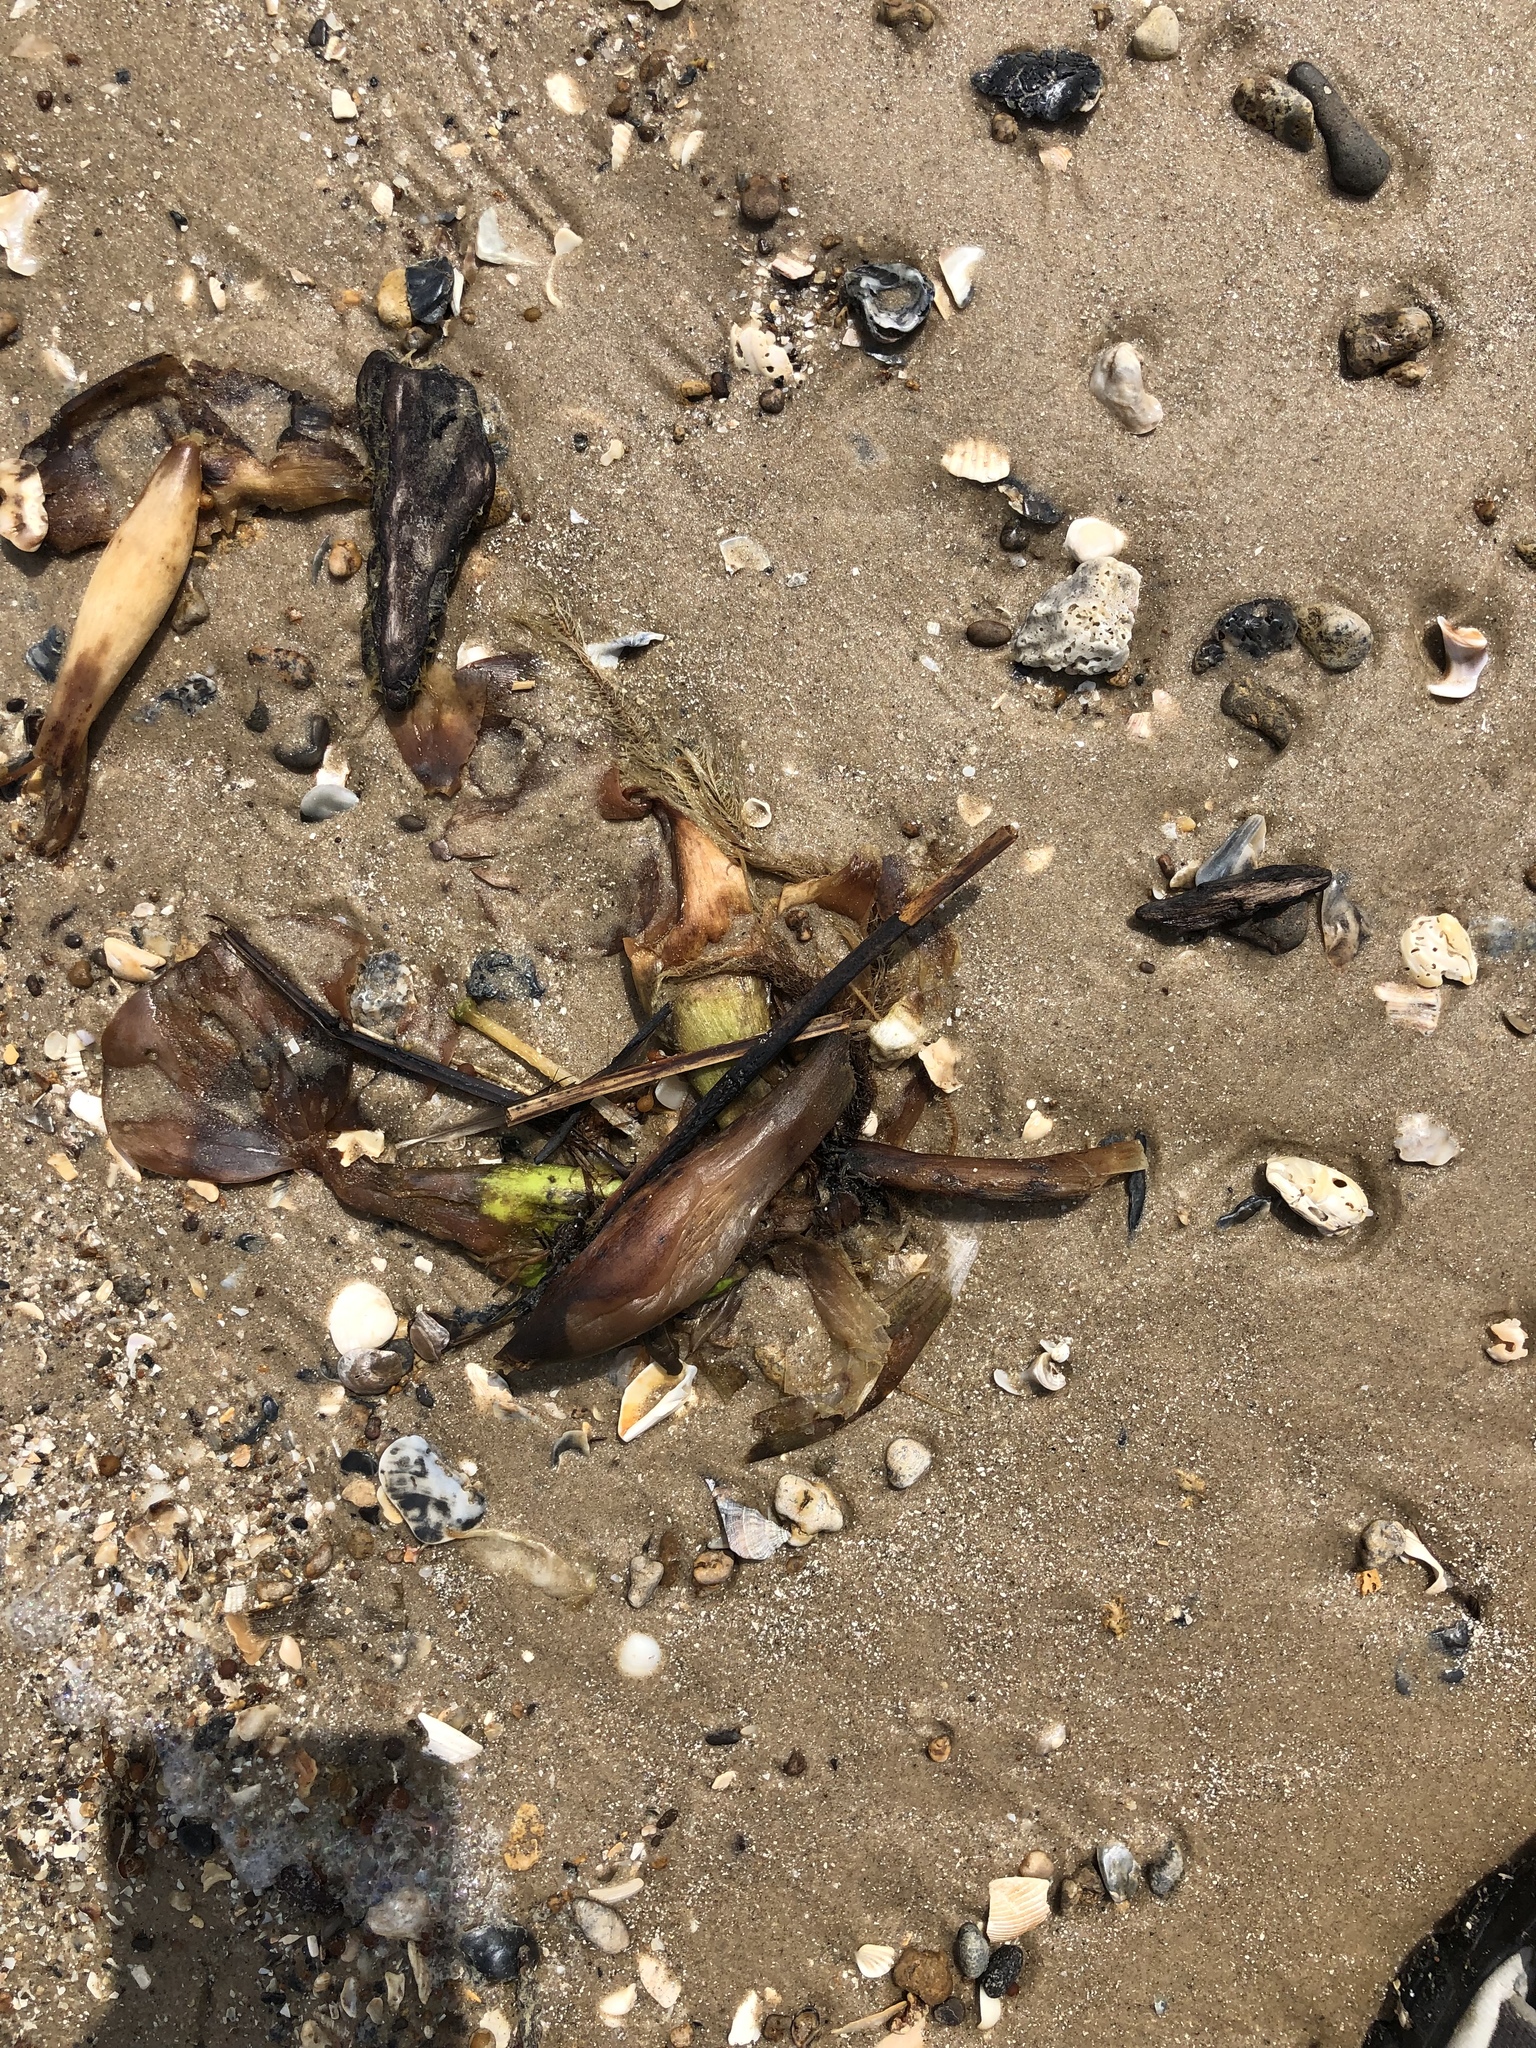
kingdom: Plantae
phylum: Tracheophyta
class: Liliopsida
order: Commelinales
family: Pontederiaceae
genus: Pontederia
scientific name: Pontederia crassipes
